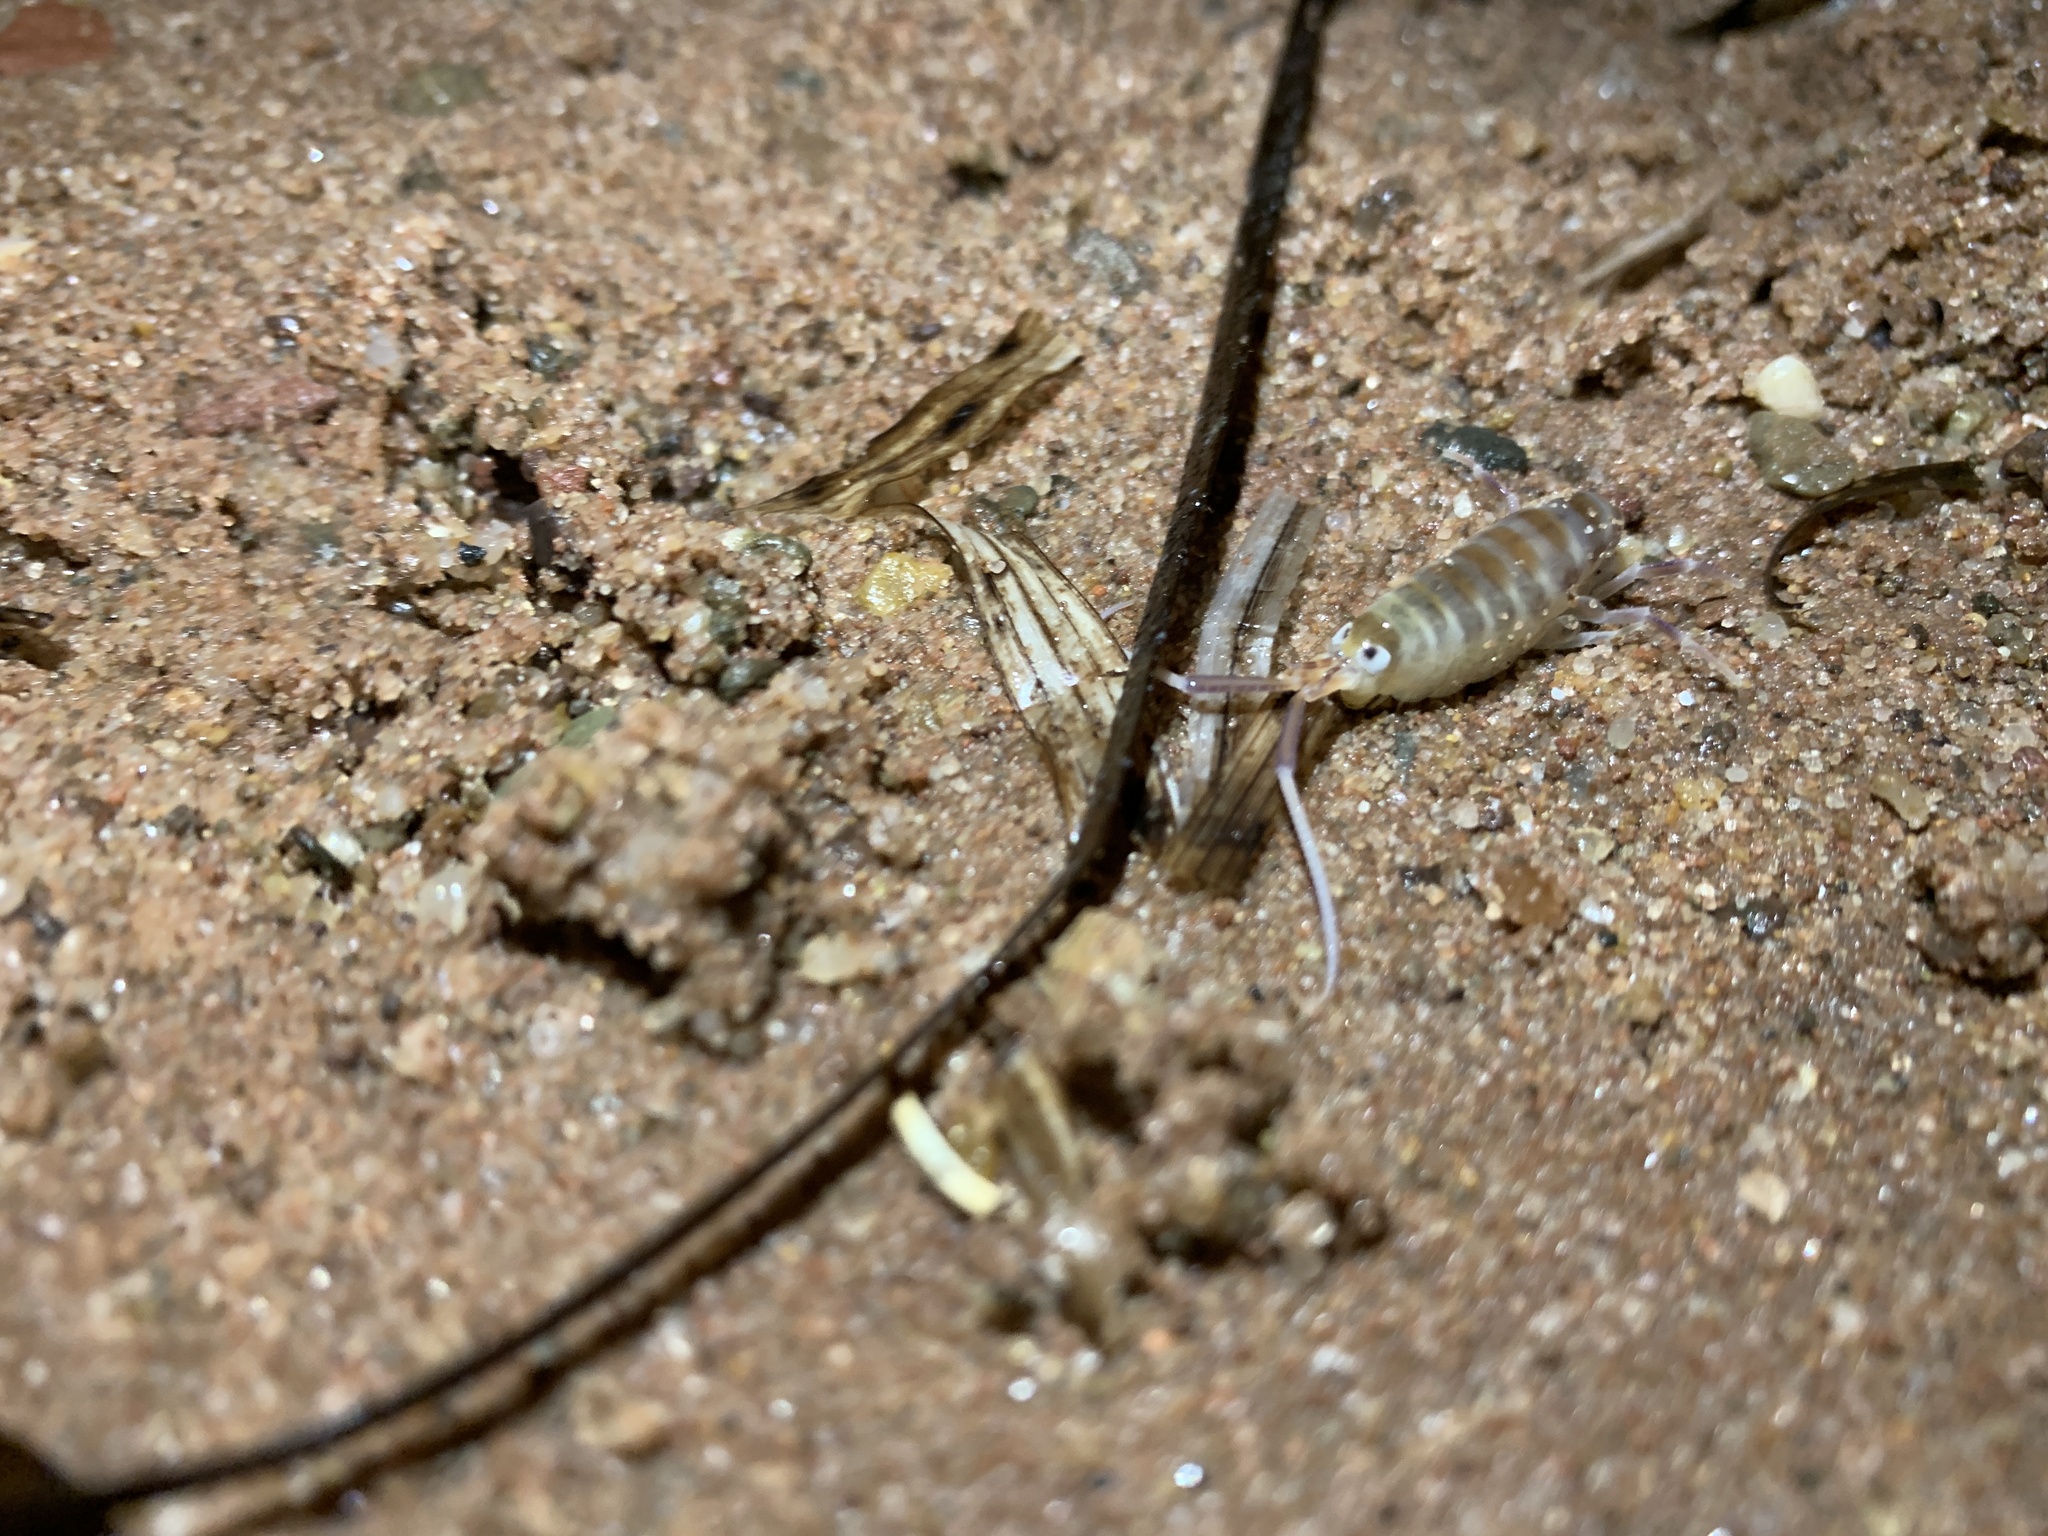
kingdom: Animalia
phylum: Arthropoda
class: Malacostraca
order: Amphipoda
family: Talitridae
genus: Americorchestia
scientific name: Americorchestia
